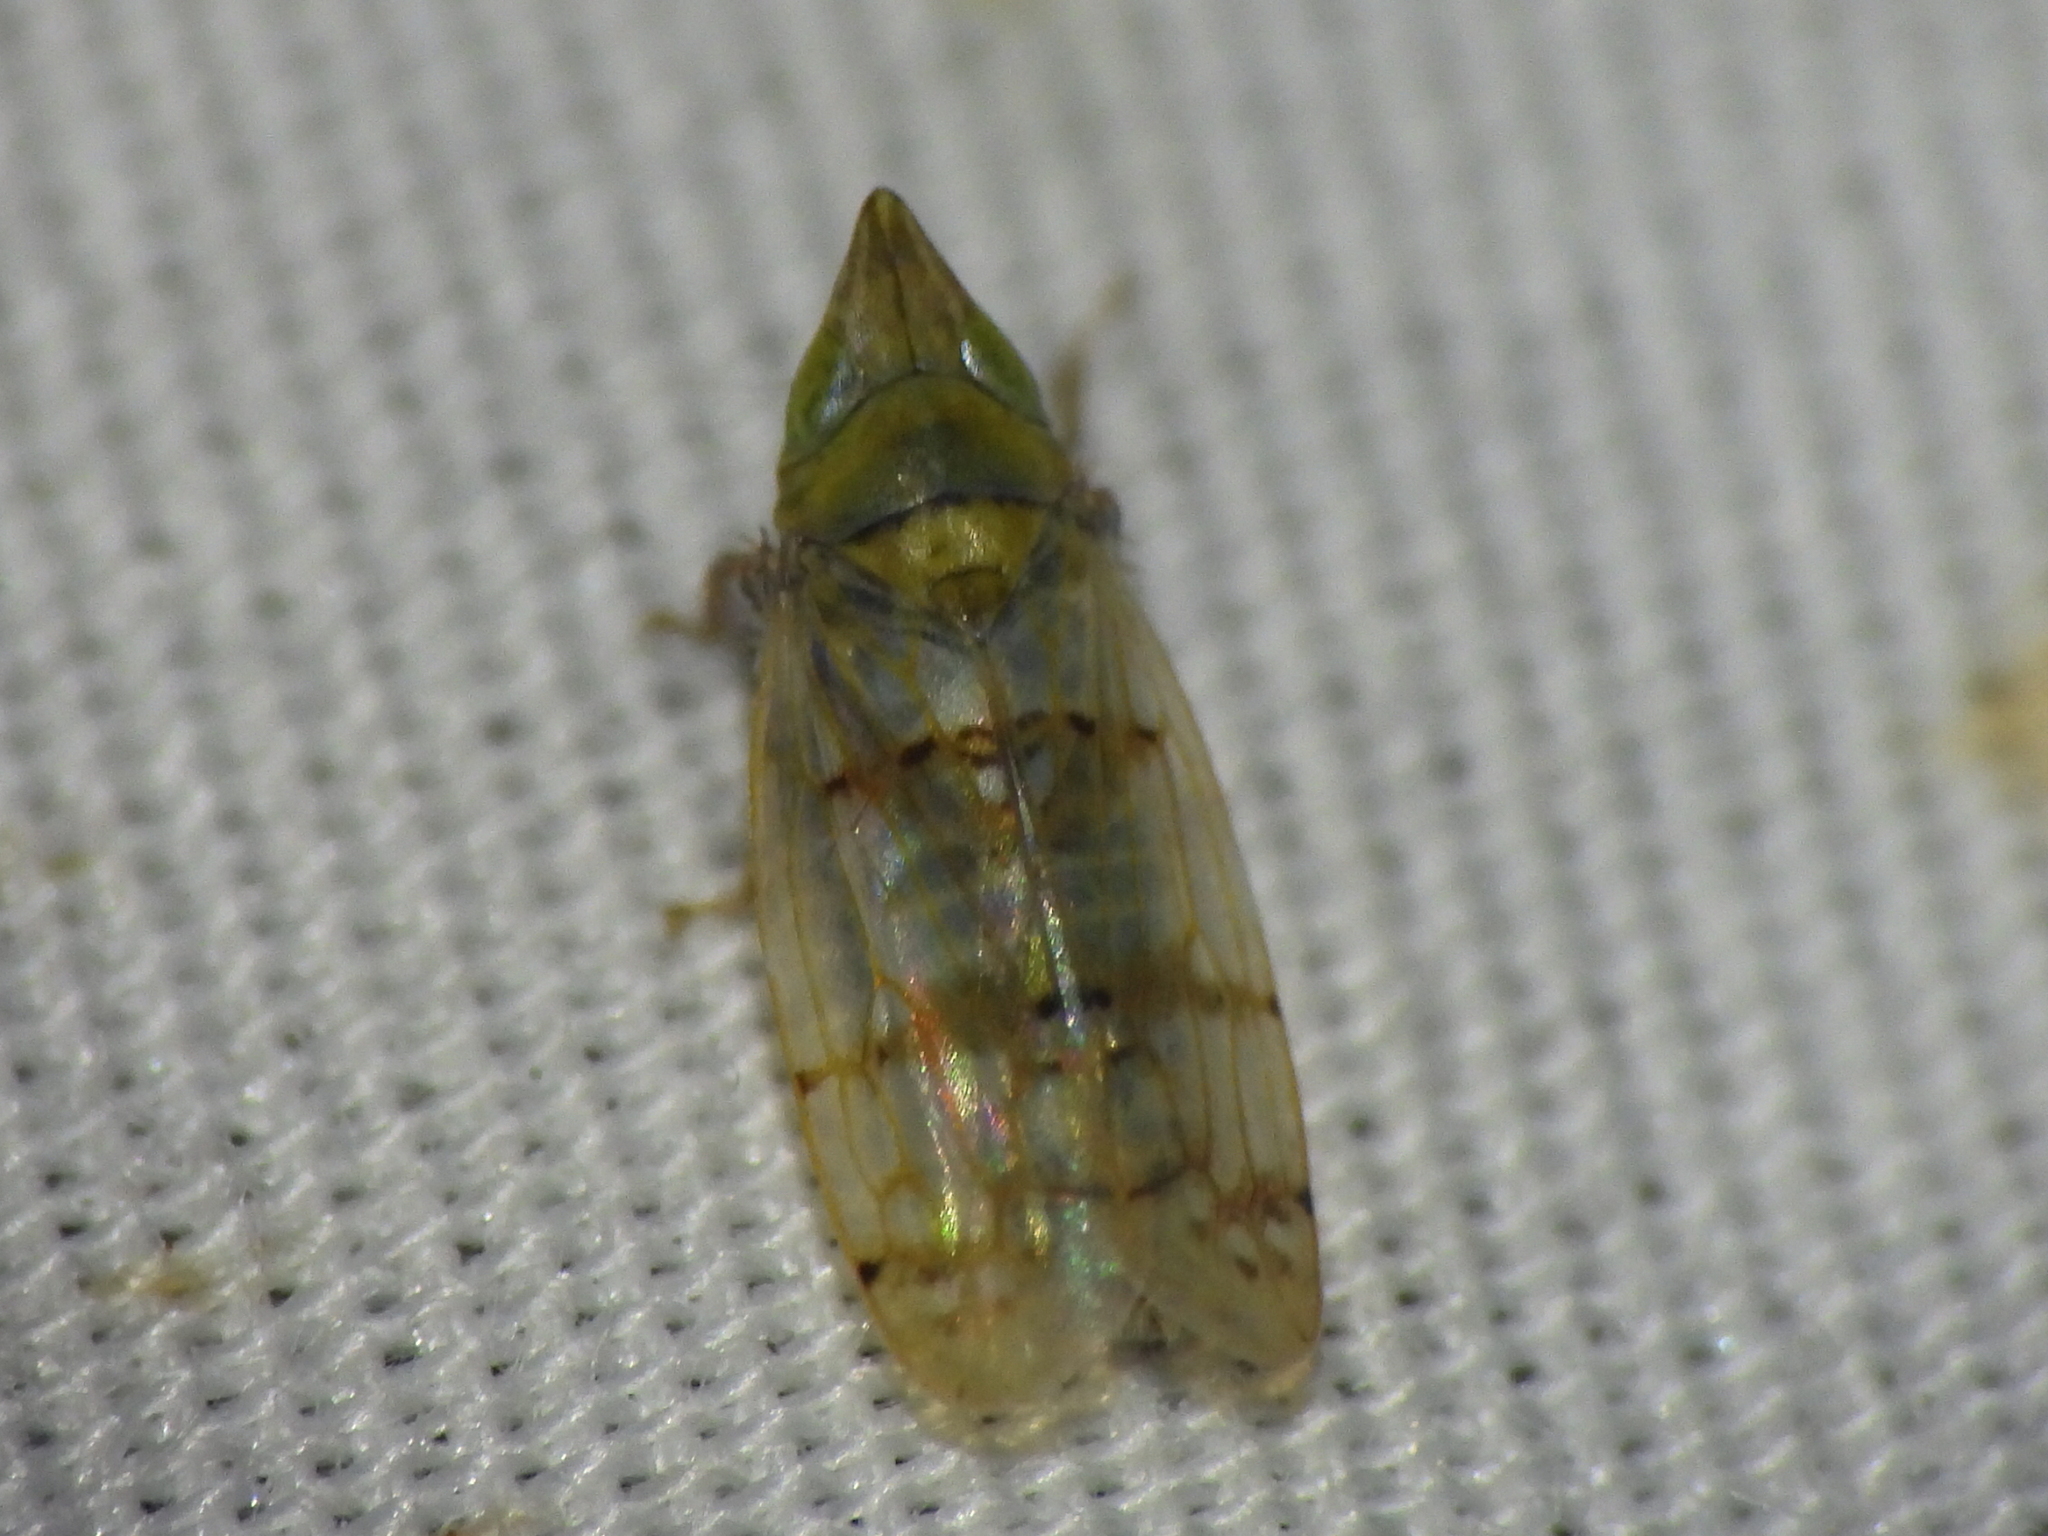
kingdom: Animalia
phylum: Arthropoda
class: Insecta
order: Hemiptera
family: Cicadellidae
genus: Japananus
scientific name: Japananus hyalinus
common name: The japanese maple leafhopper
